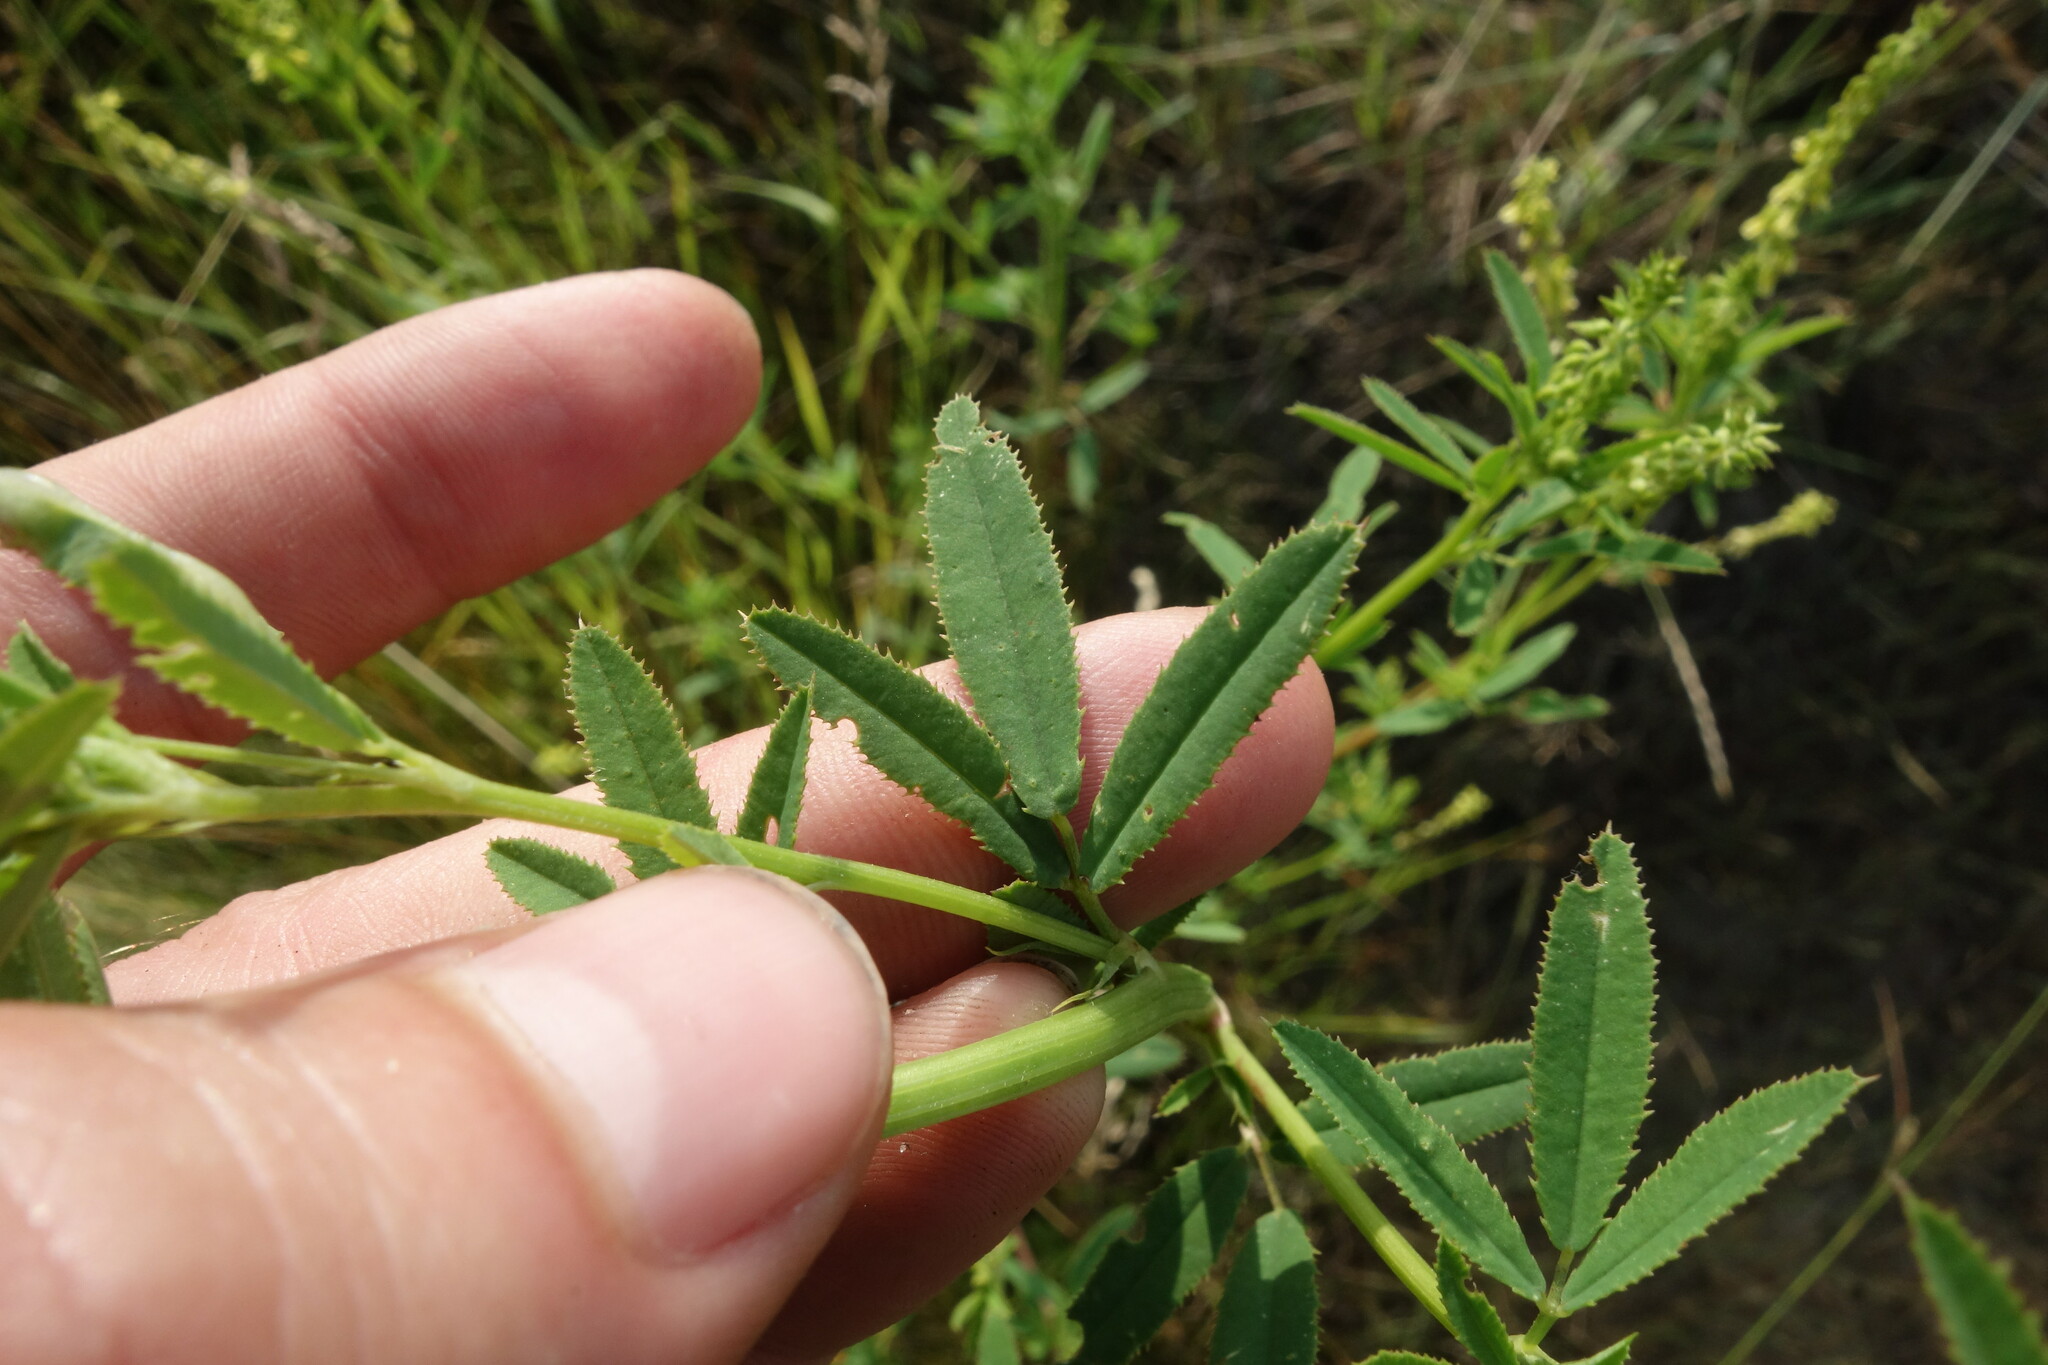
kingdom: Plantae
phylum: Tracheophyta
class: Magnoliopsida
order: Fabales
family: Fabaceae
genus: Melilotus
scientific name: Melilotus dentatus
